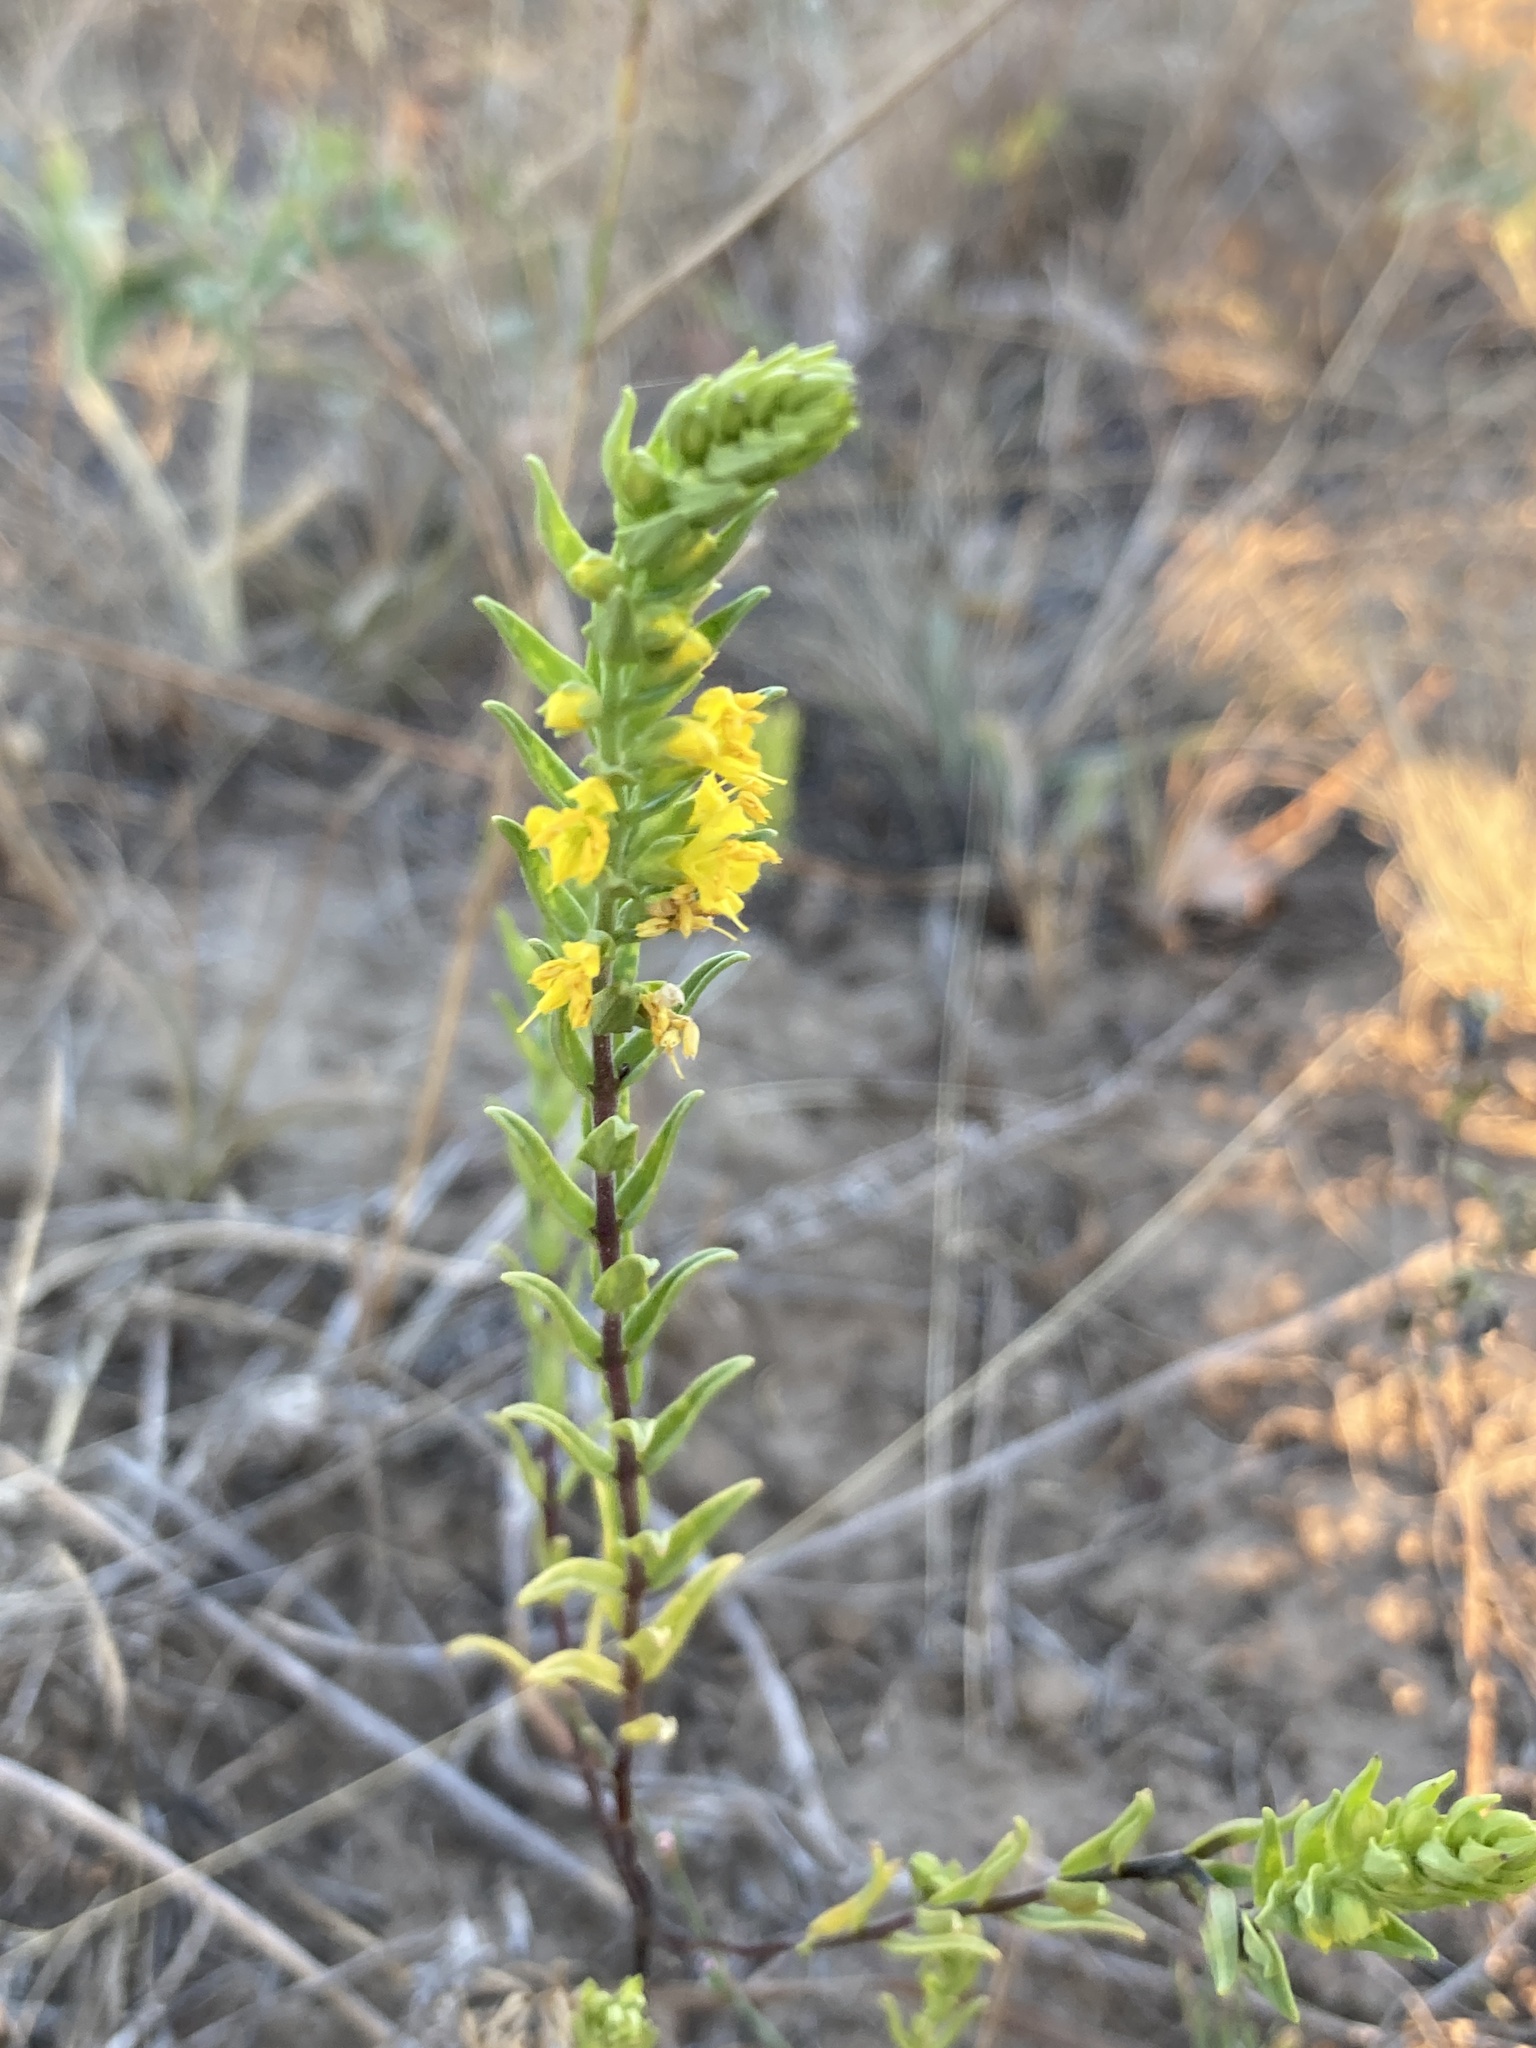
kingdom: Plantae
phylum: Tracheophyta
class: Magnoliopsida
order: Lamiales
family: Orobanchaceae
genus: Odontites
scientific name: Odontites luteus
